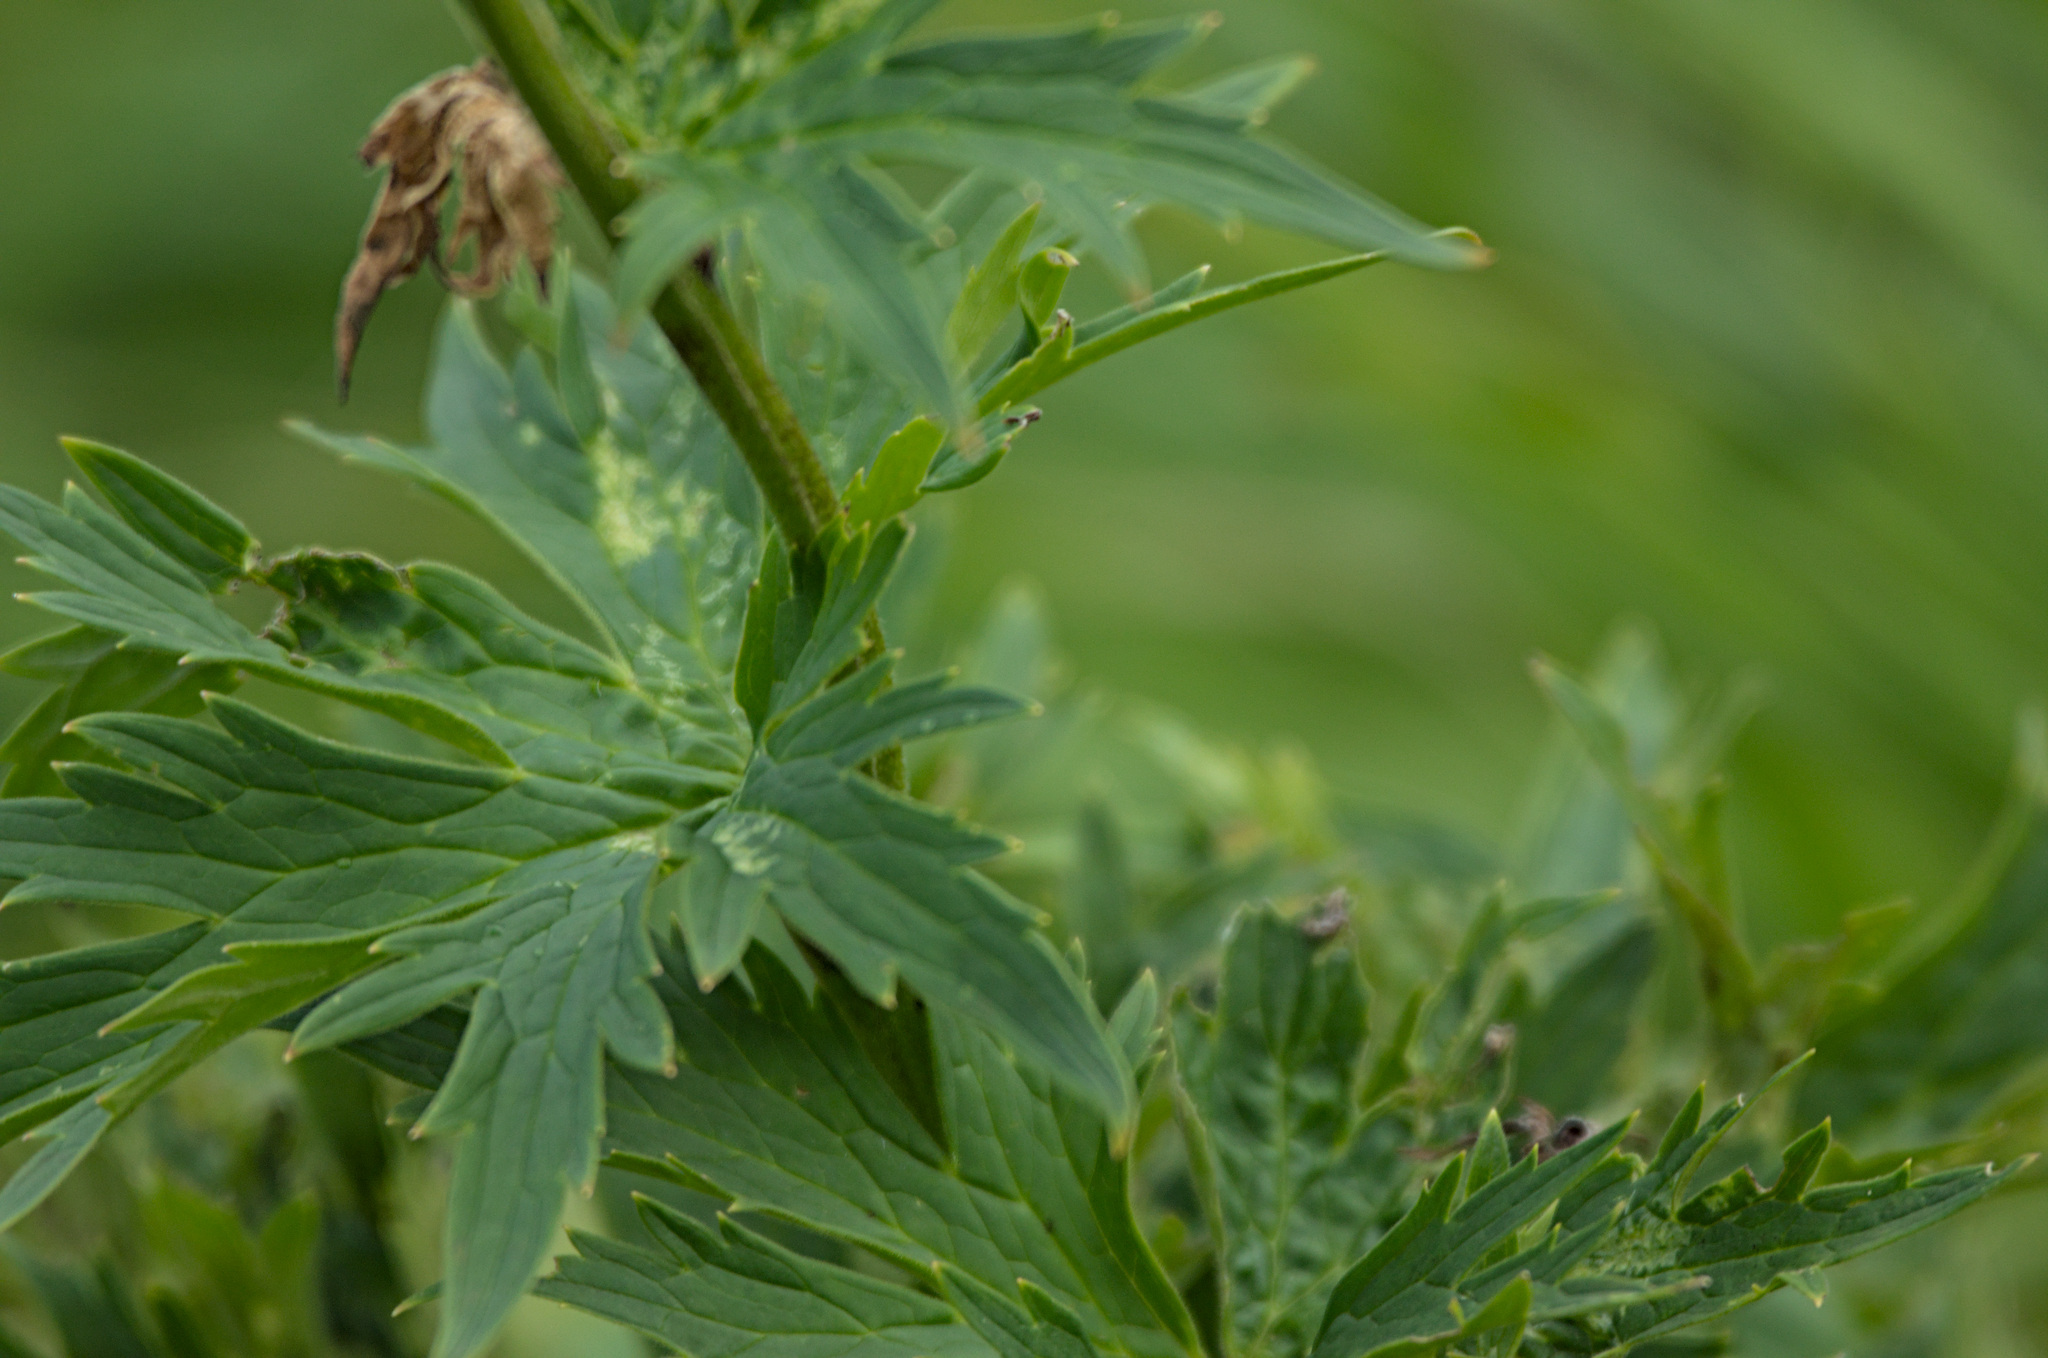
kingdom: Plantae
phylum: Tracheophyta
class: Magnoliopsida
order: Ranunculales
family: Ranunculaceae
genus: Aconitum
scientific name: Aconitum septentrionale
